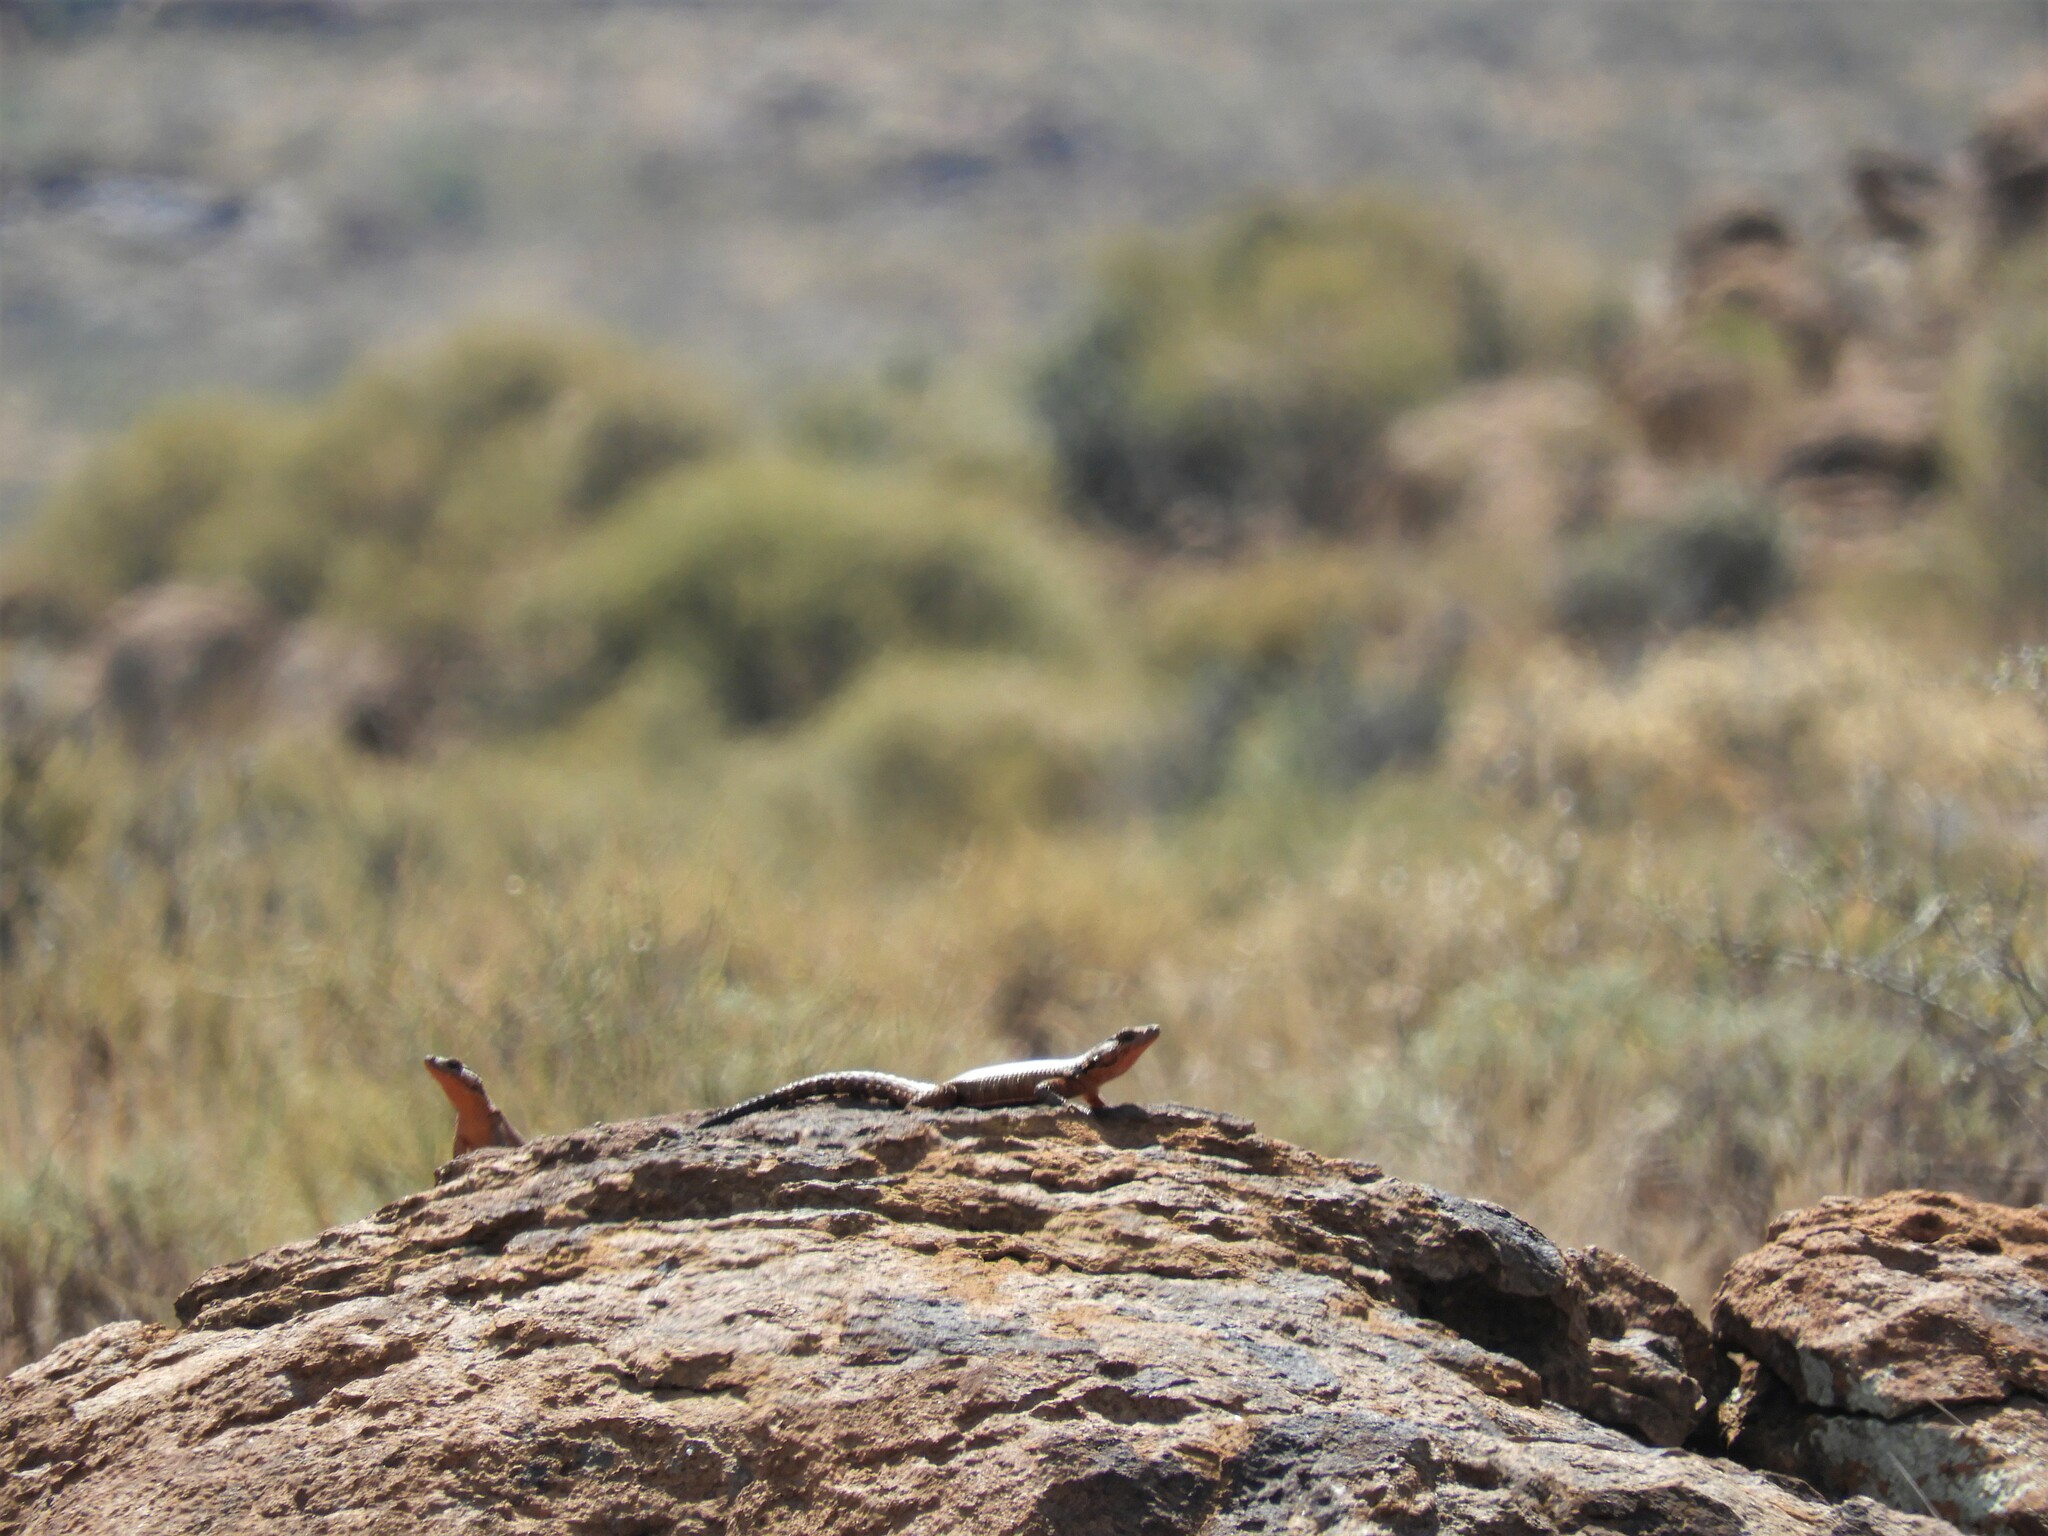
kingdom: Animalia
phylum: Chordata
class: Squamata
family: Cordylidae
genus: Karusasaurus
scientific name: Karusasaurus polyzonus
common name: Karoo girdled lizard
